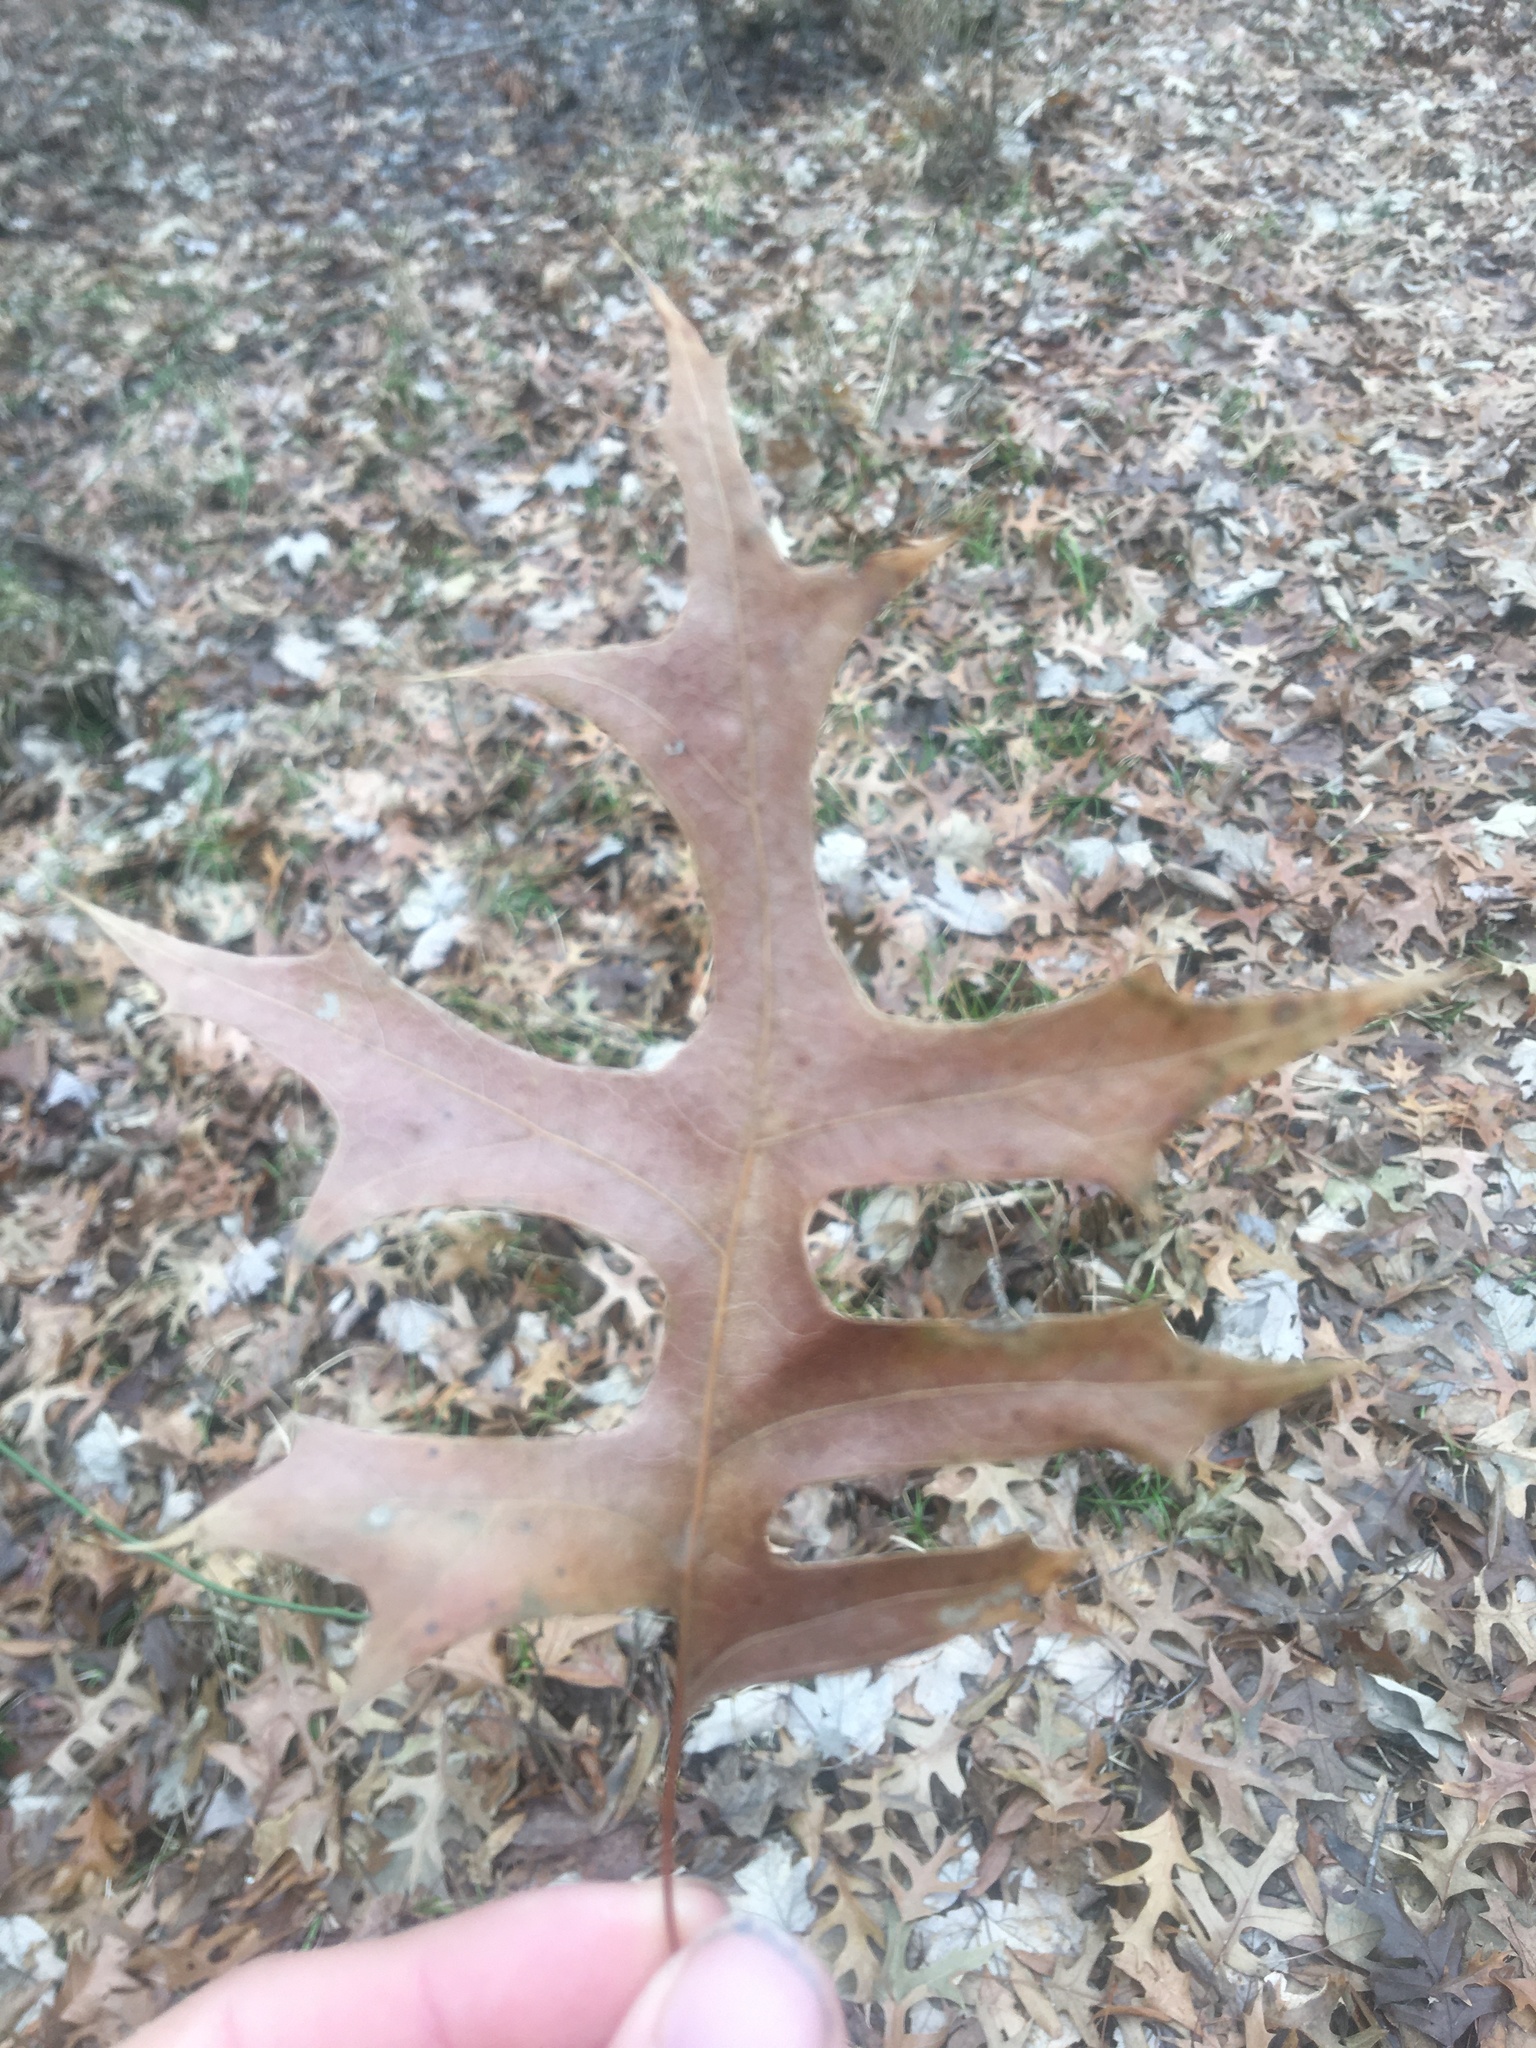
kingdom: Plantae
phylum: Tracheophyta
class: Magnoliopsida
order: Fagales
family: Fagaceae
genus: Quercus
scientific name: Quercus palustris
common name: Pin oak
